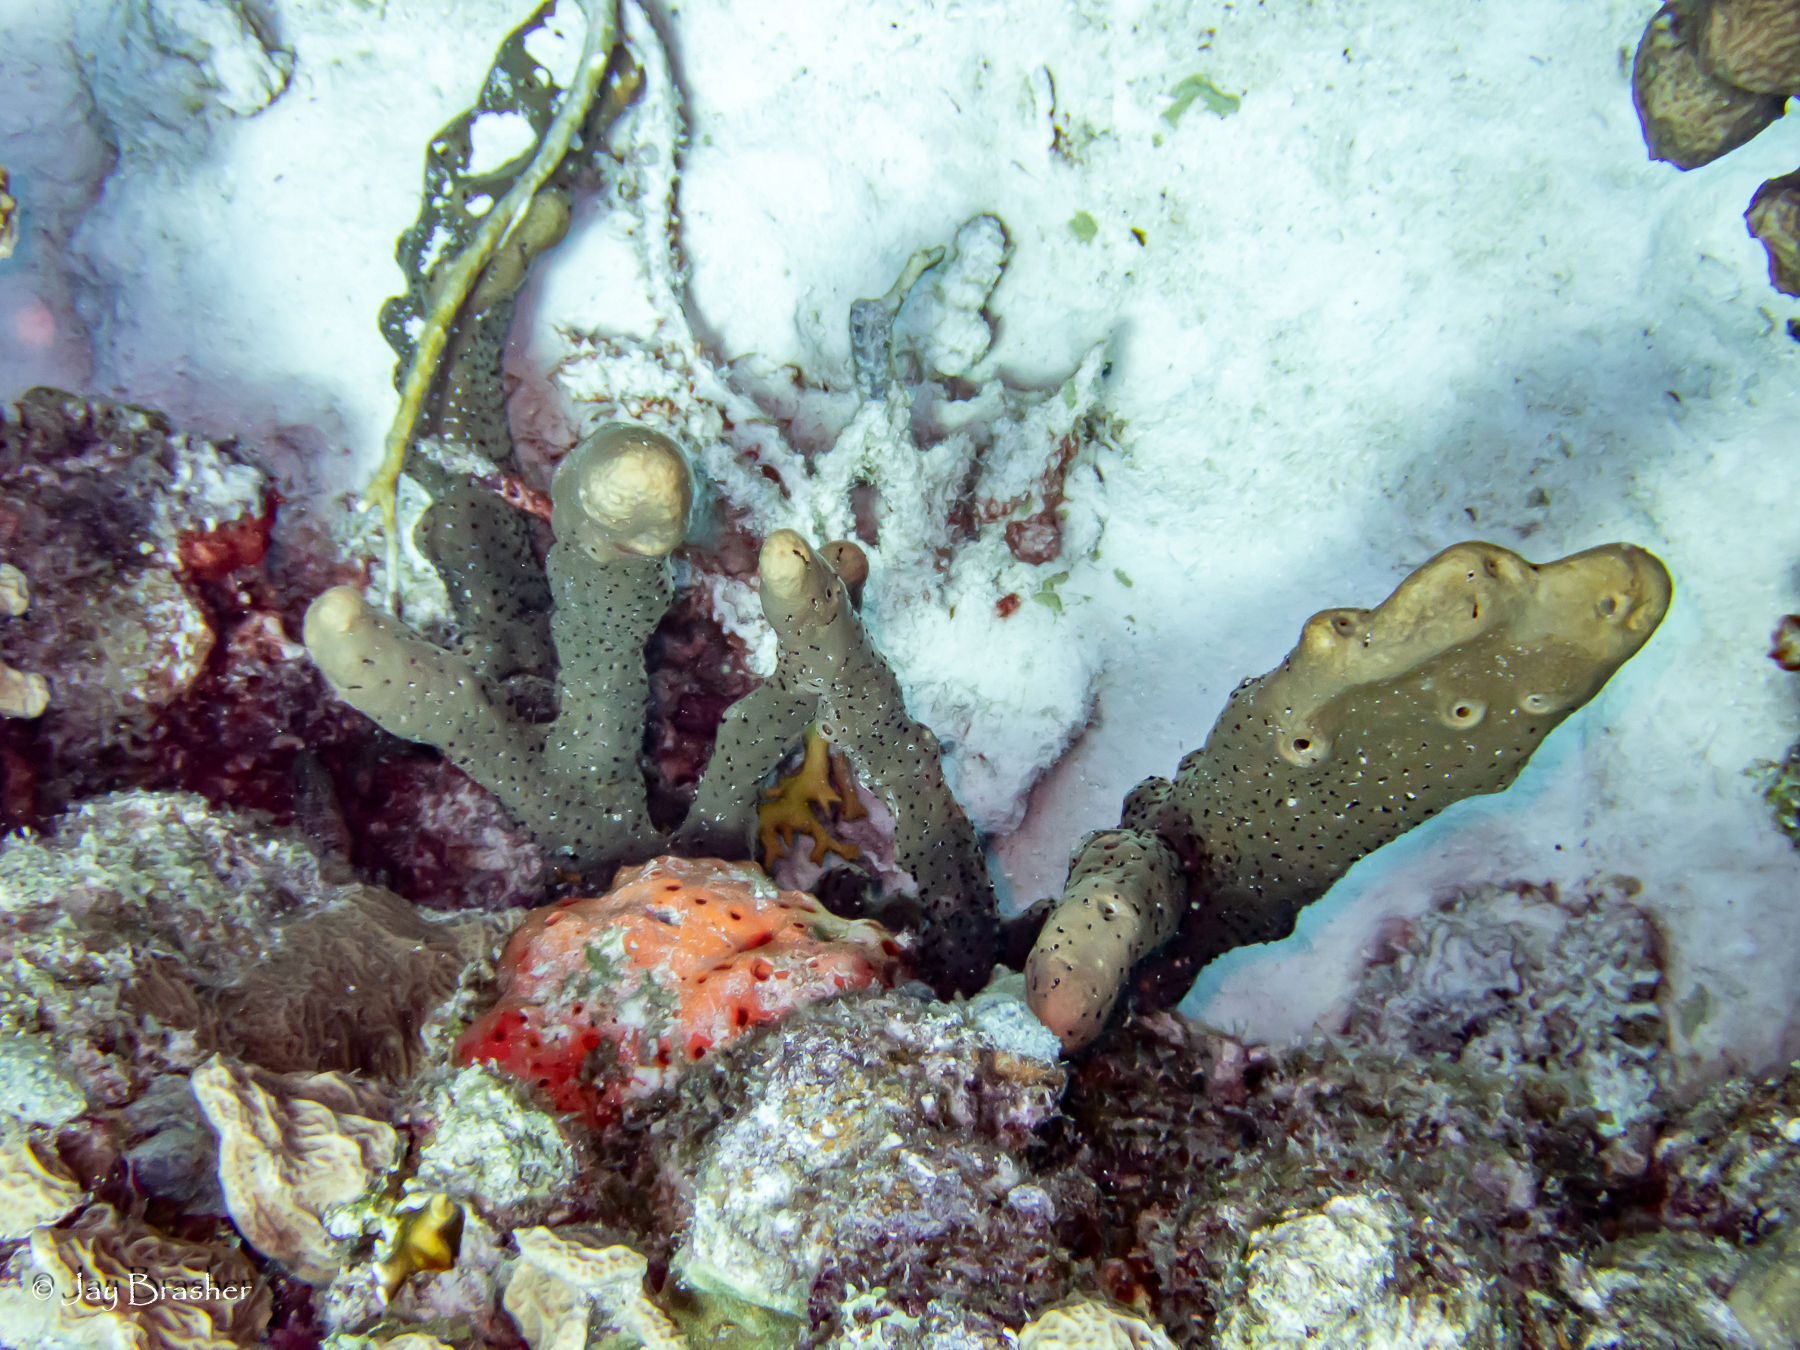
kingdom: Animalia
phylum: Porifera
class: Demospongiae
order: Agelasida
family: Agelasidae
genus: Agelas
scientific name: Agelas conifera
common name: Brown tube sponge
